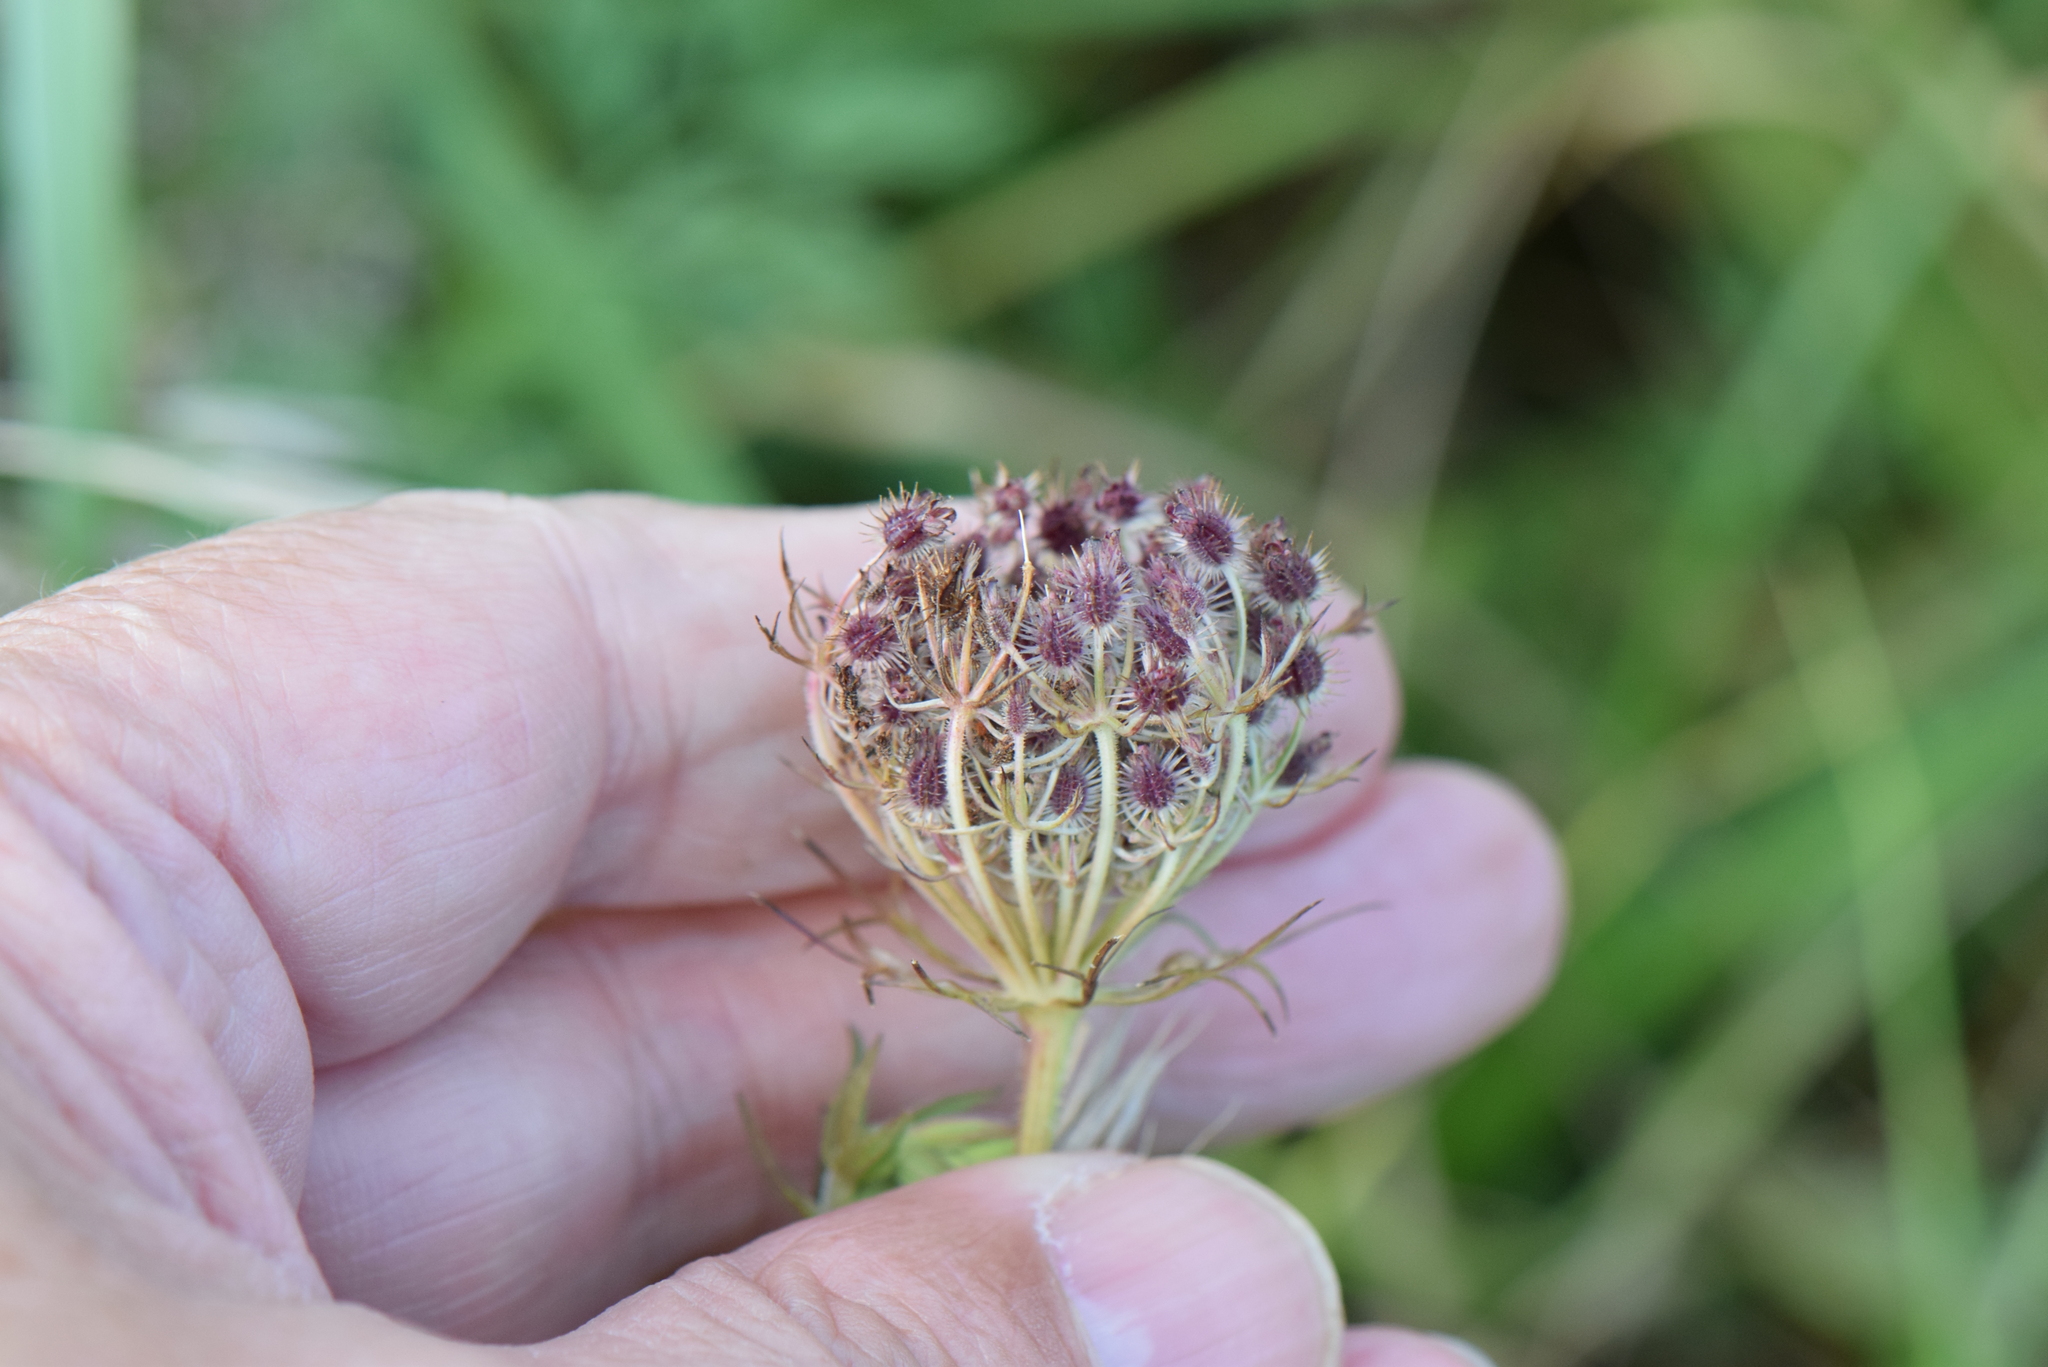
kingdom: Plantae
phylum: Tracheophyta
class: Magnoliopsida
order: Apiales
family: Apiaceae
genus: Daucus
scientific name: Daucus carota
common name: Wild carrot
